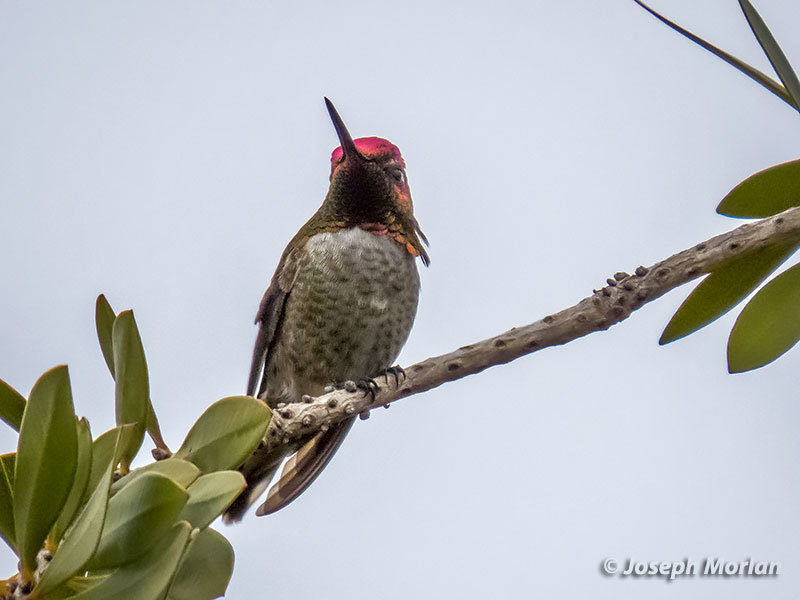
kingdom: Animalia
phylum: Chordata
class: Aves
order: Apodiformes
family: Trochilidae
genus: Calypte
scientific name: Calypte anna
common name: Anna's hummingbird
